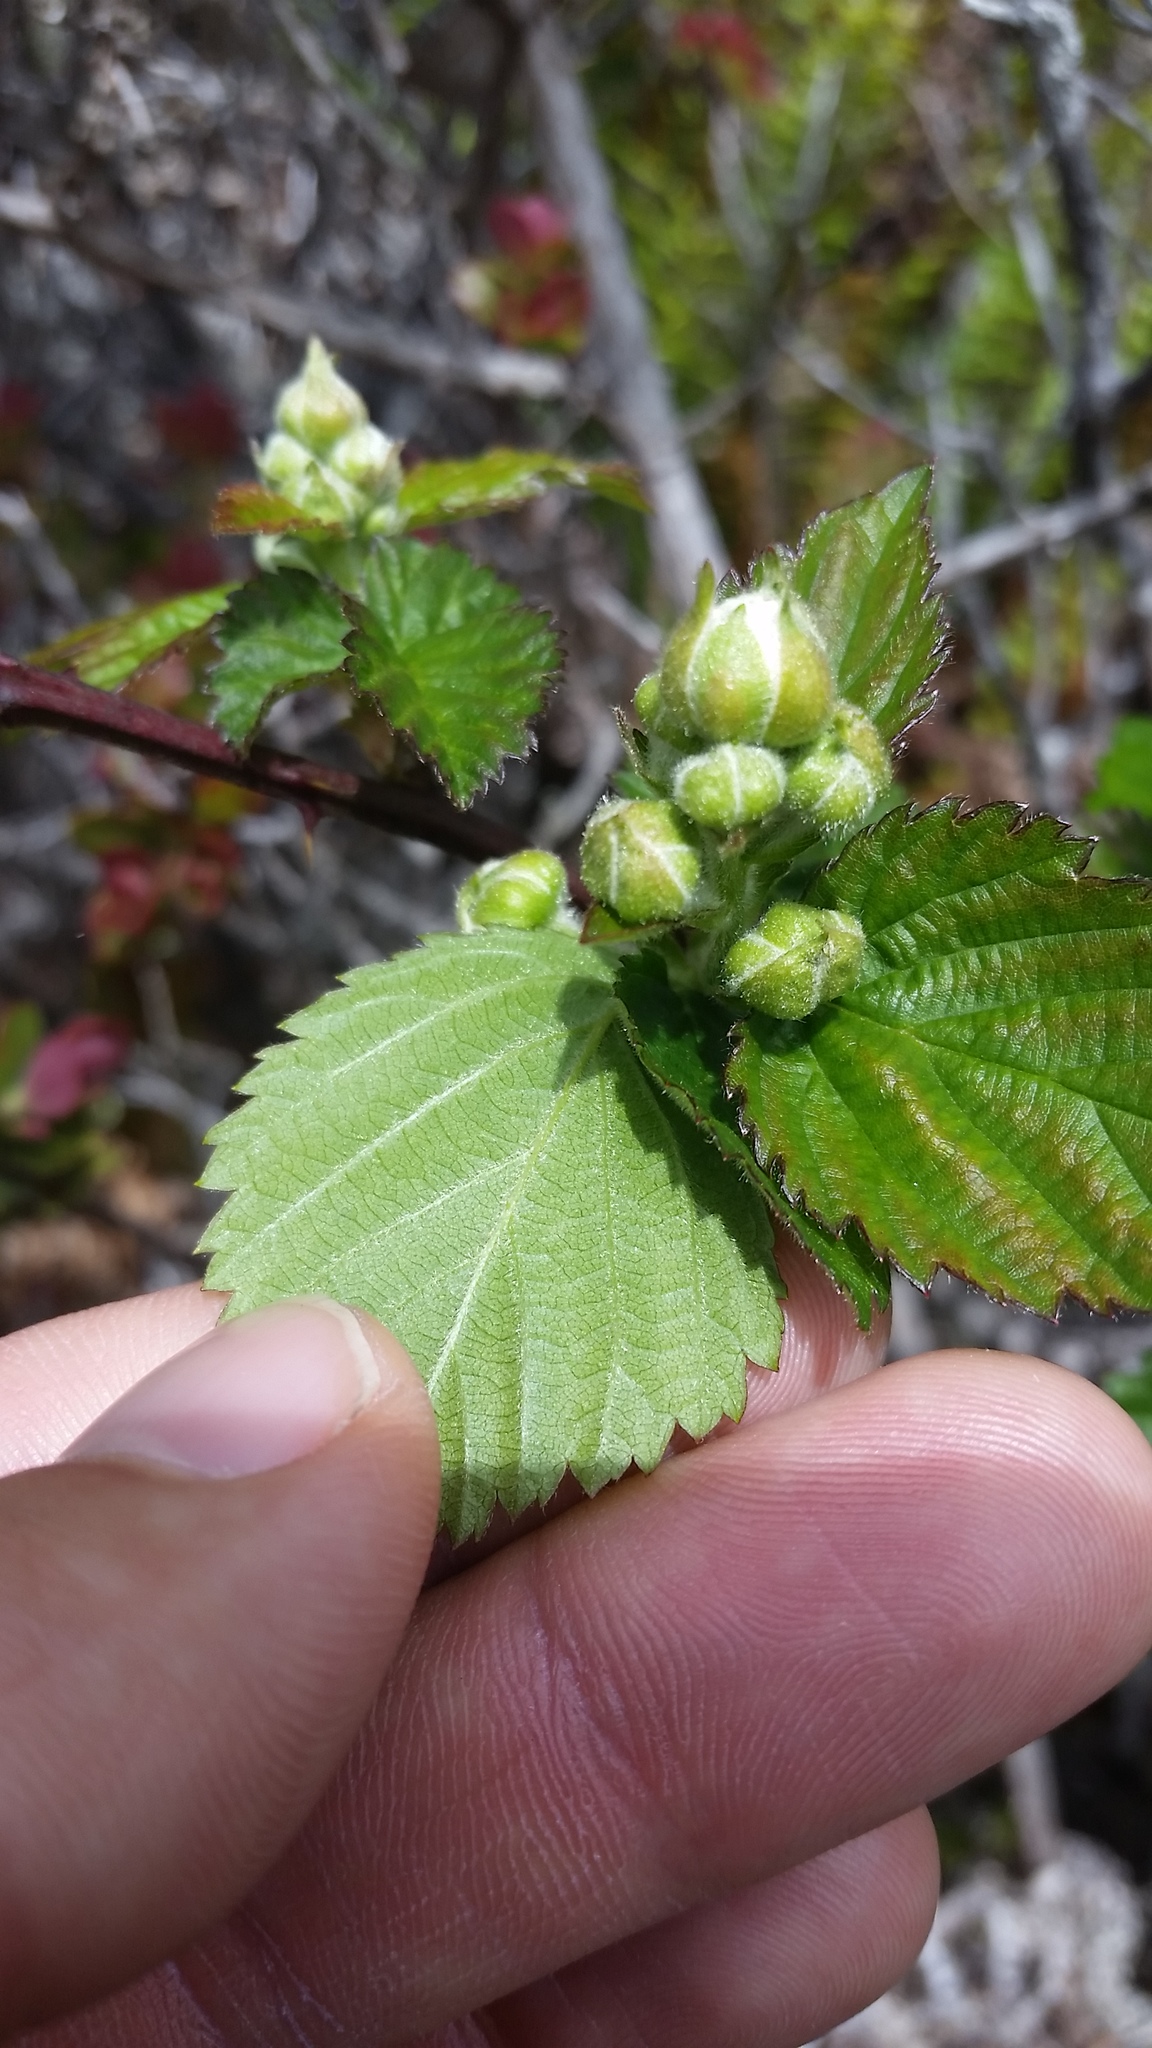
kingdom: Plantae
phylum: Tracheophyta
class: Magnoliopsida
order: Rosales
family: Rosaceae
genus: Rubus
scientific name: Rubus argutus
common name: Sawtooth blackberry
